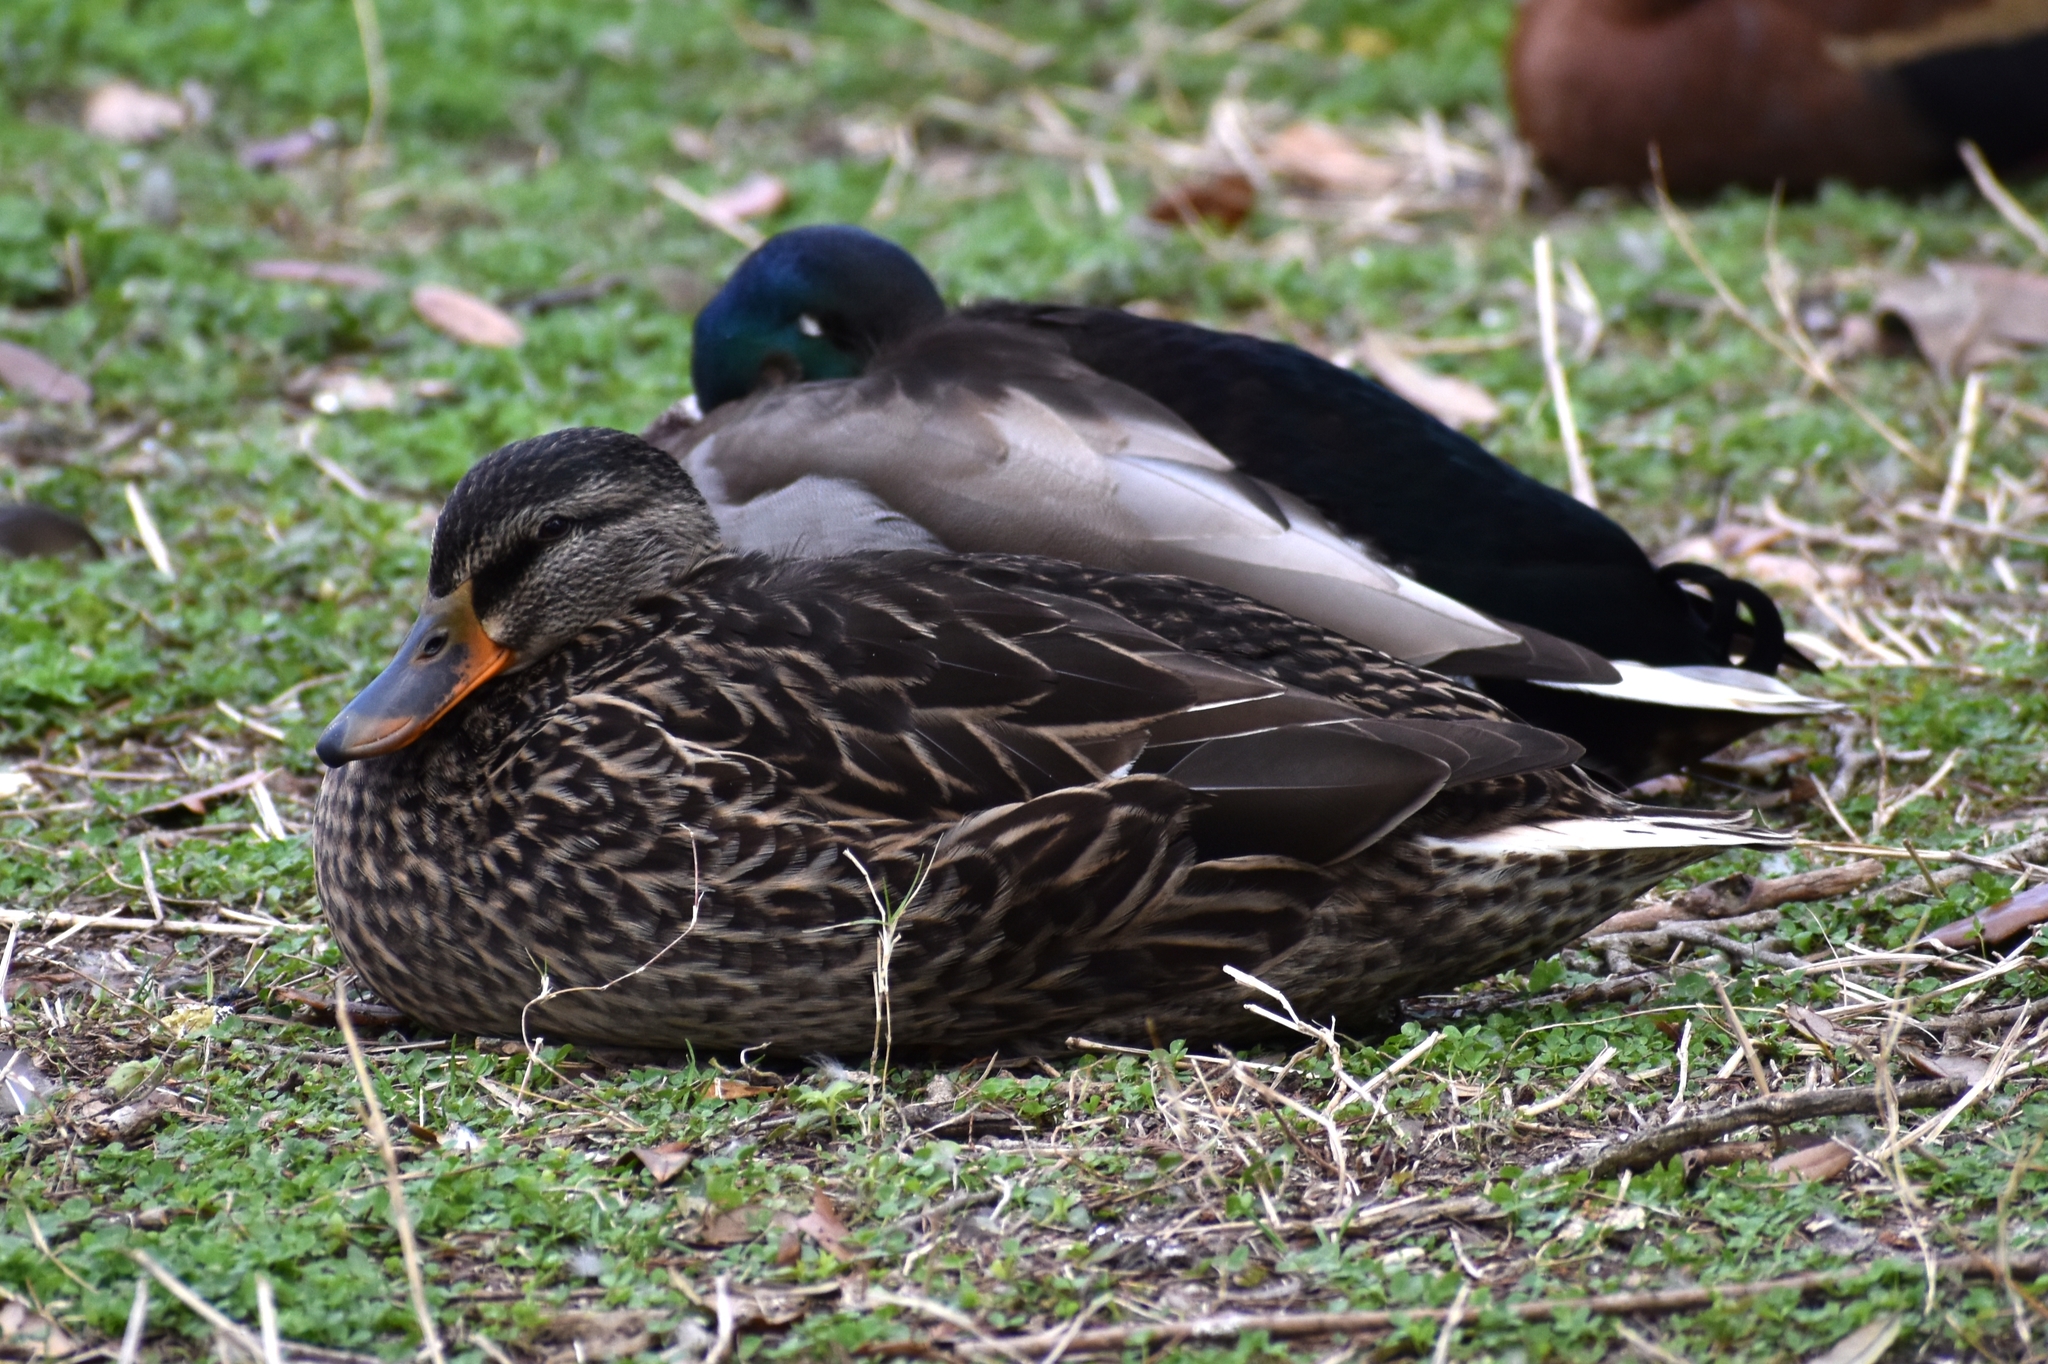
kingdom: Animalia
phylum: Chordata
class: Aves
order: Anseriformes
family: Anatidae
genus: Anas
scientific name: Anas platyrhynchos
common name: Mallard
